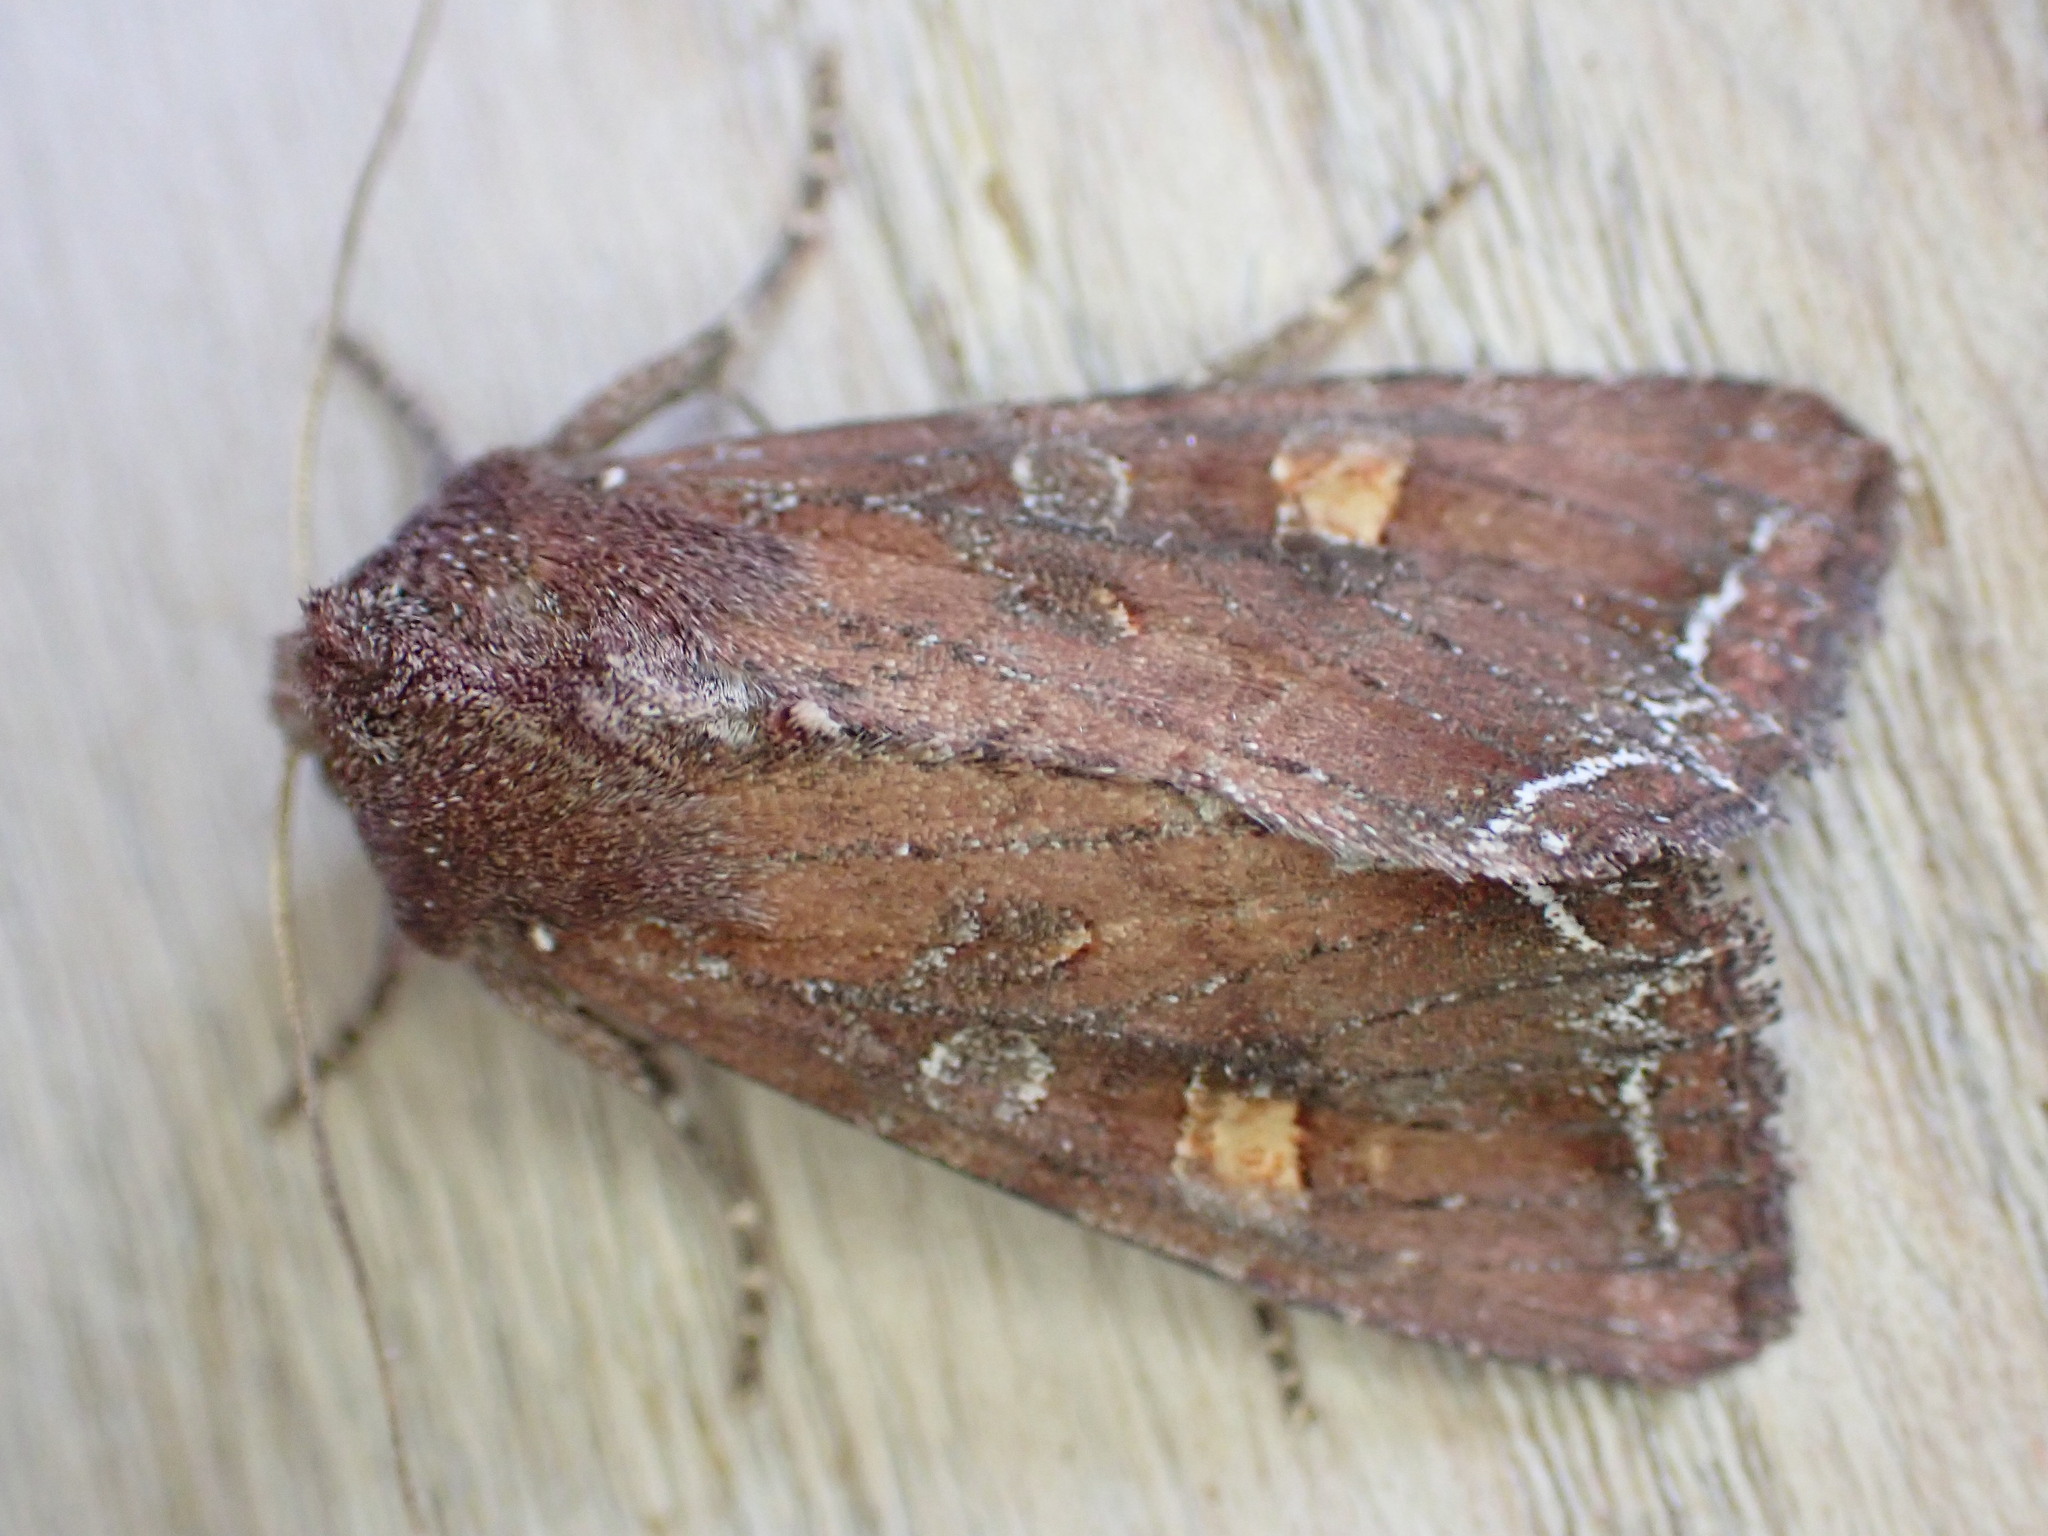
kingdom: Animalia
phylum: Arthropoda
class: Insecta
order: Lepidoptera
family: Noctuidae
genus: Lacanobia
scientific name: Lacanobia oleracea
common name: Bright-line brown-eye
